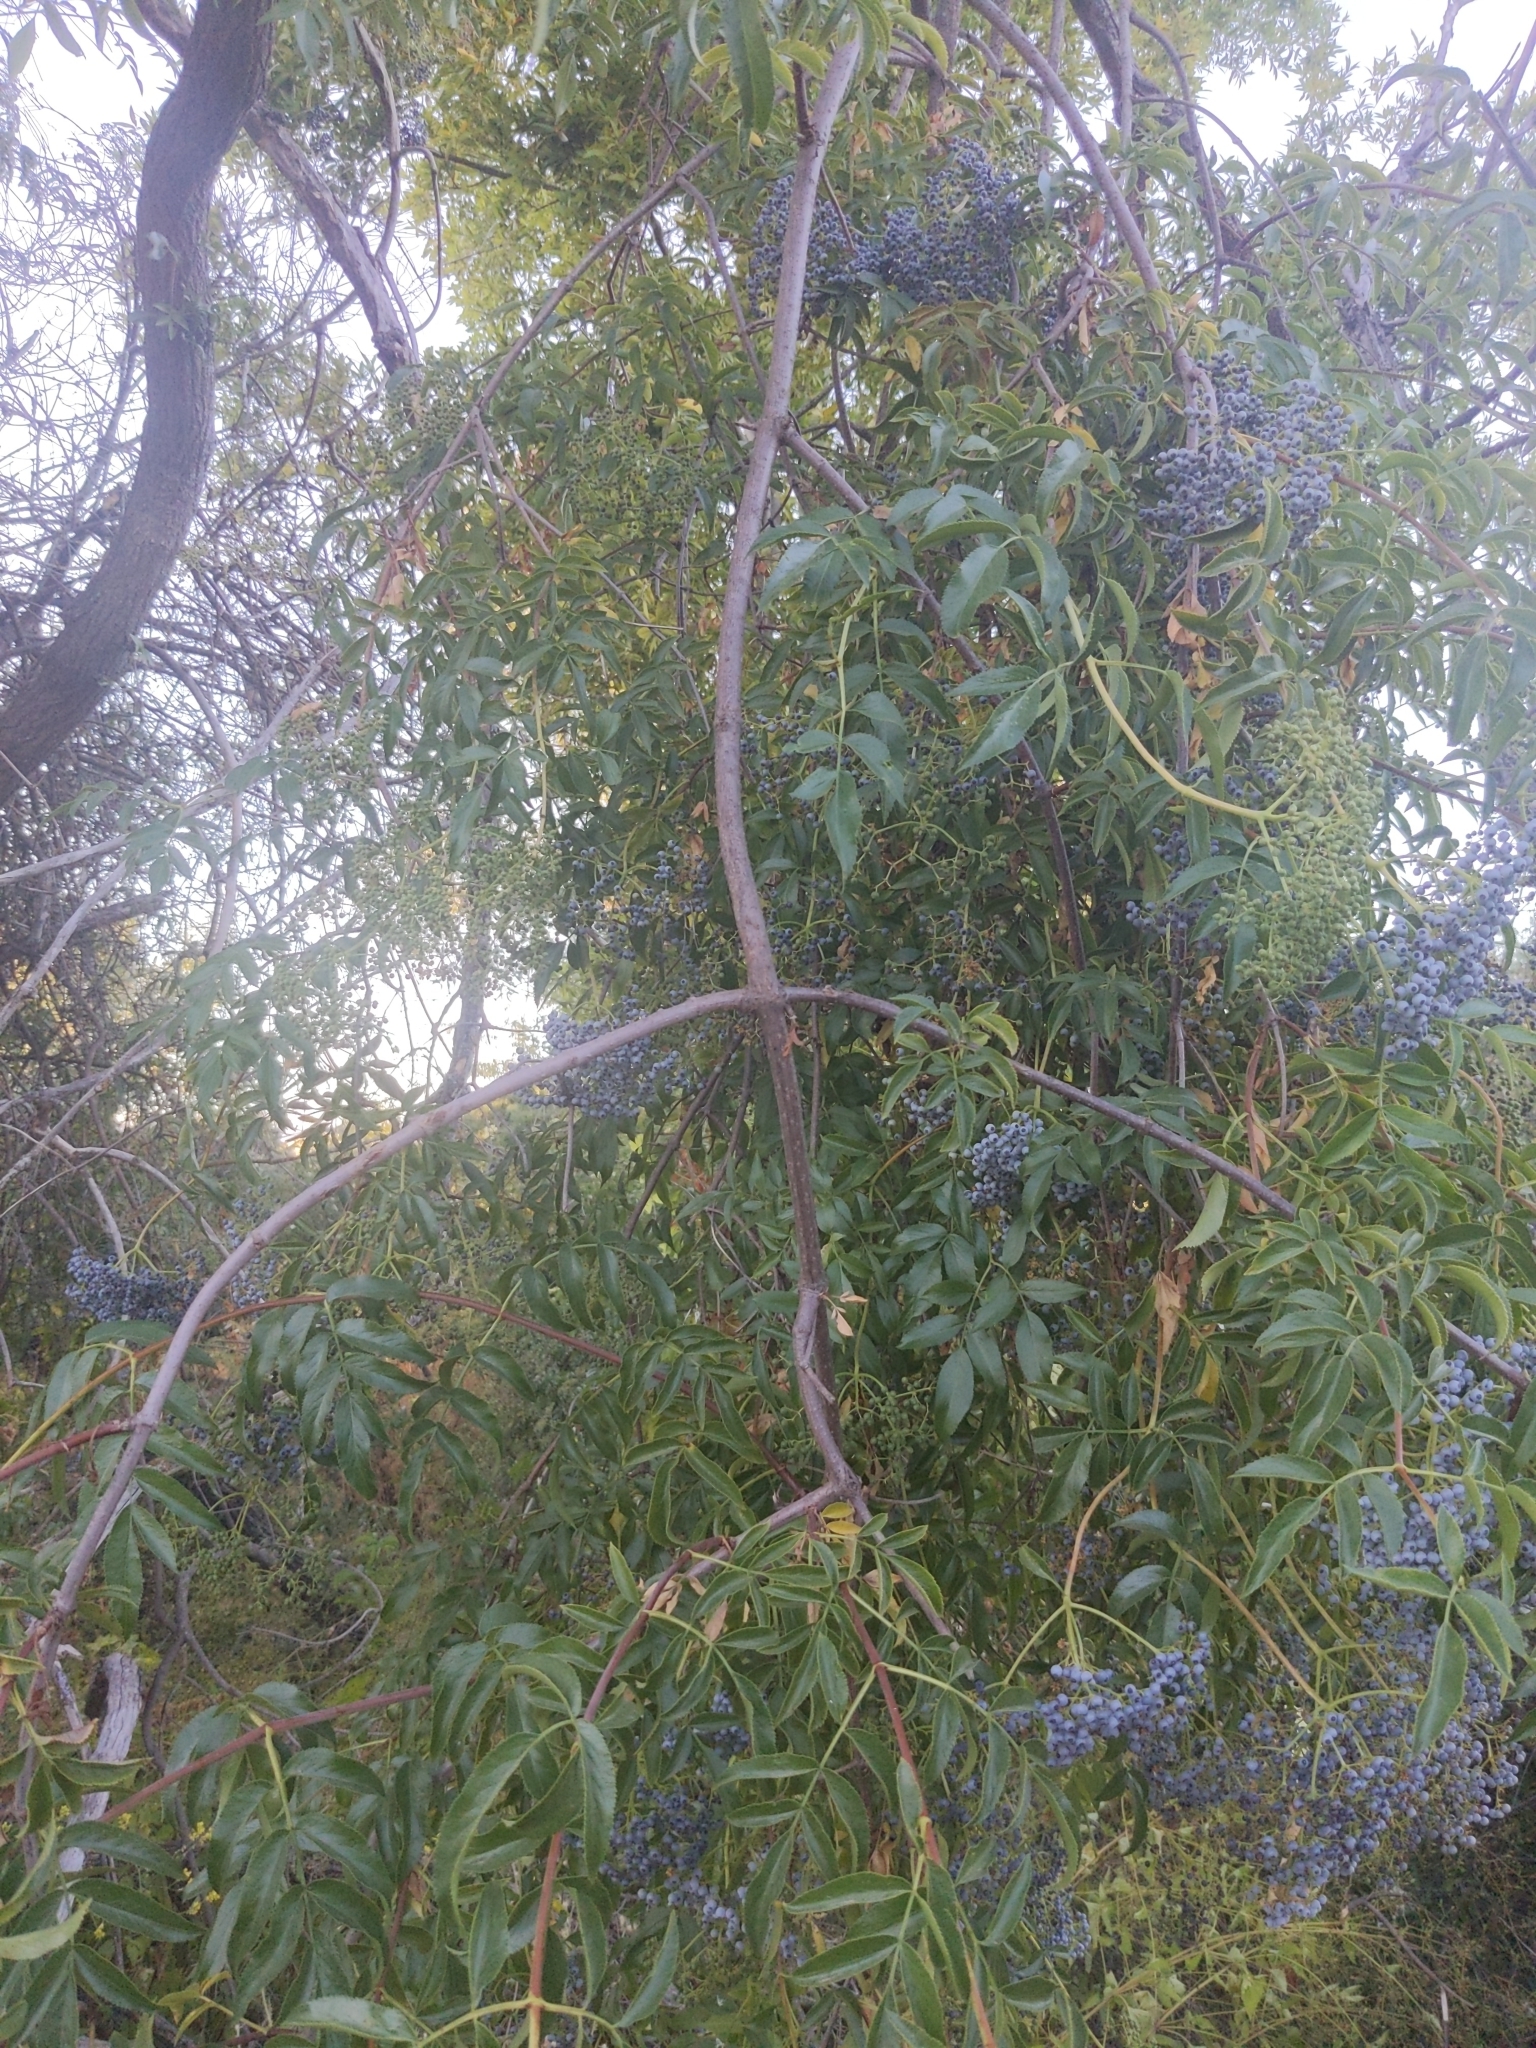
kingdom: Plantae
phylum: Tracheophyta
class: Magnoliopsida
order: Dipsacales
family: Viburnaceae
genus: Sambucus
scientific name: Sambucus cerulea
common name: Blue elder
